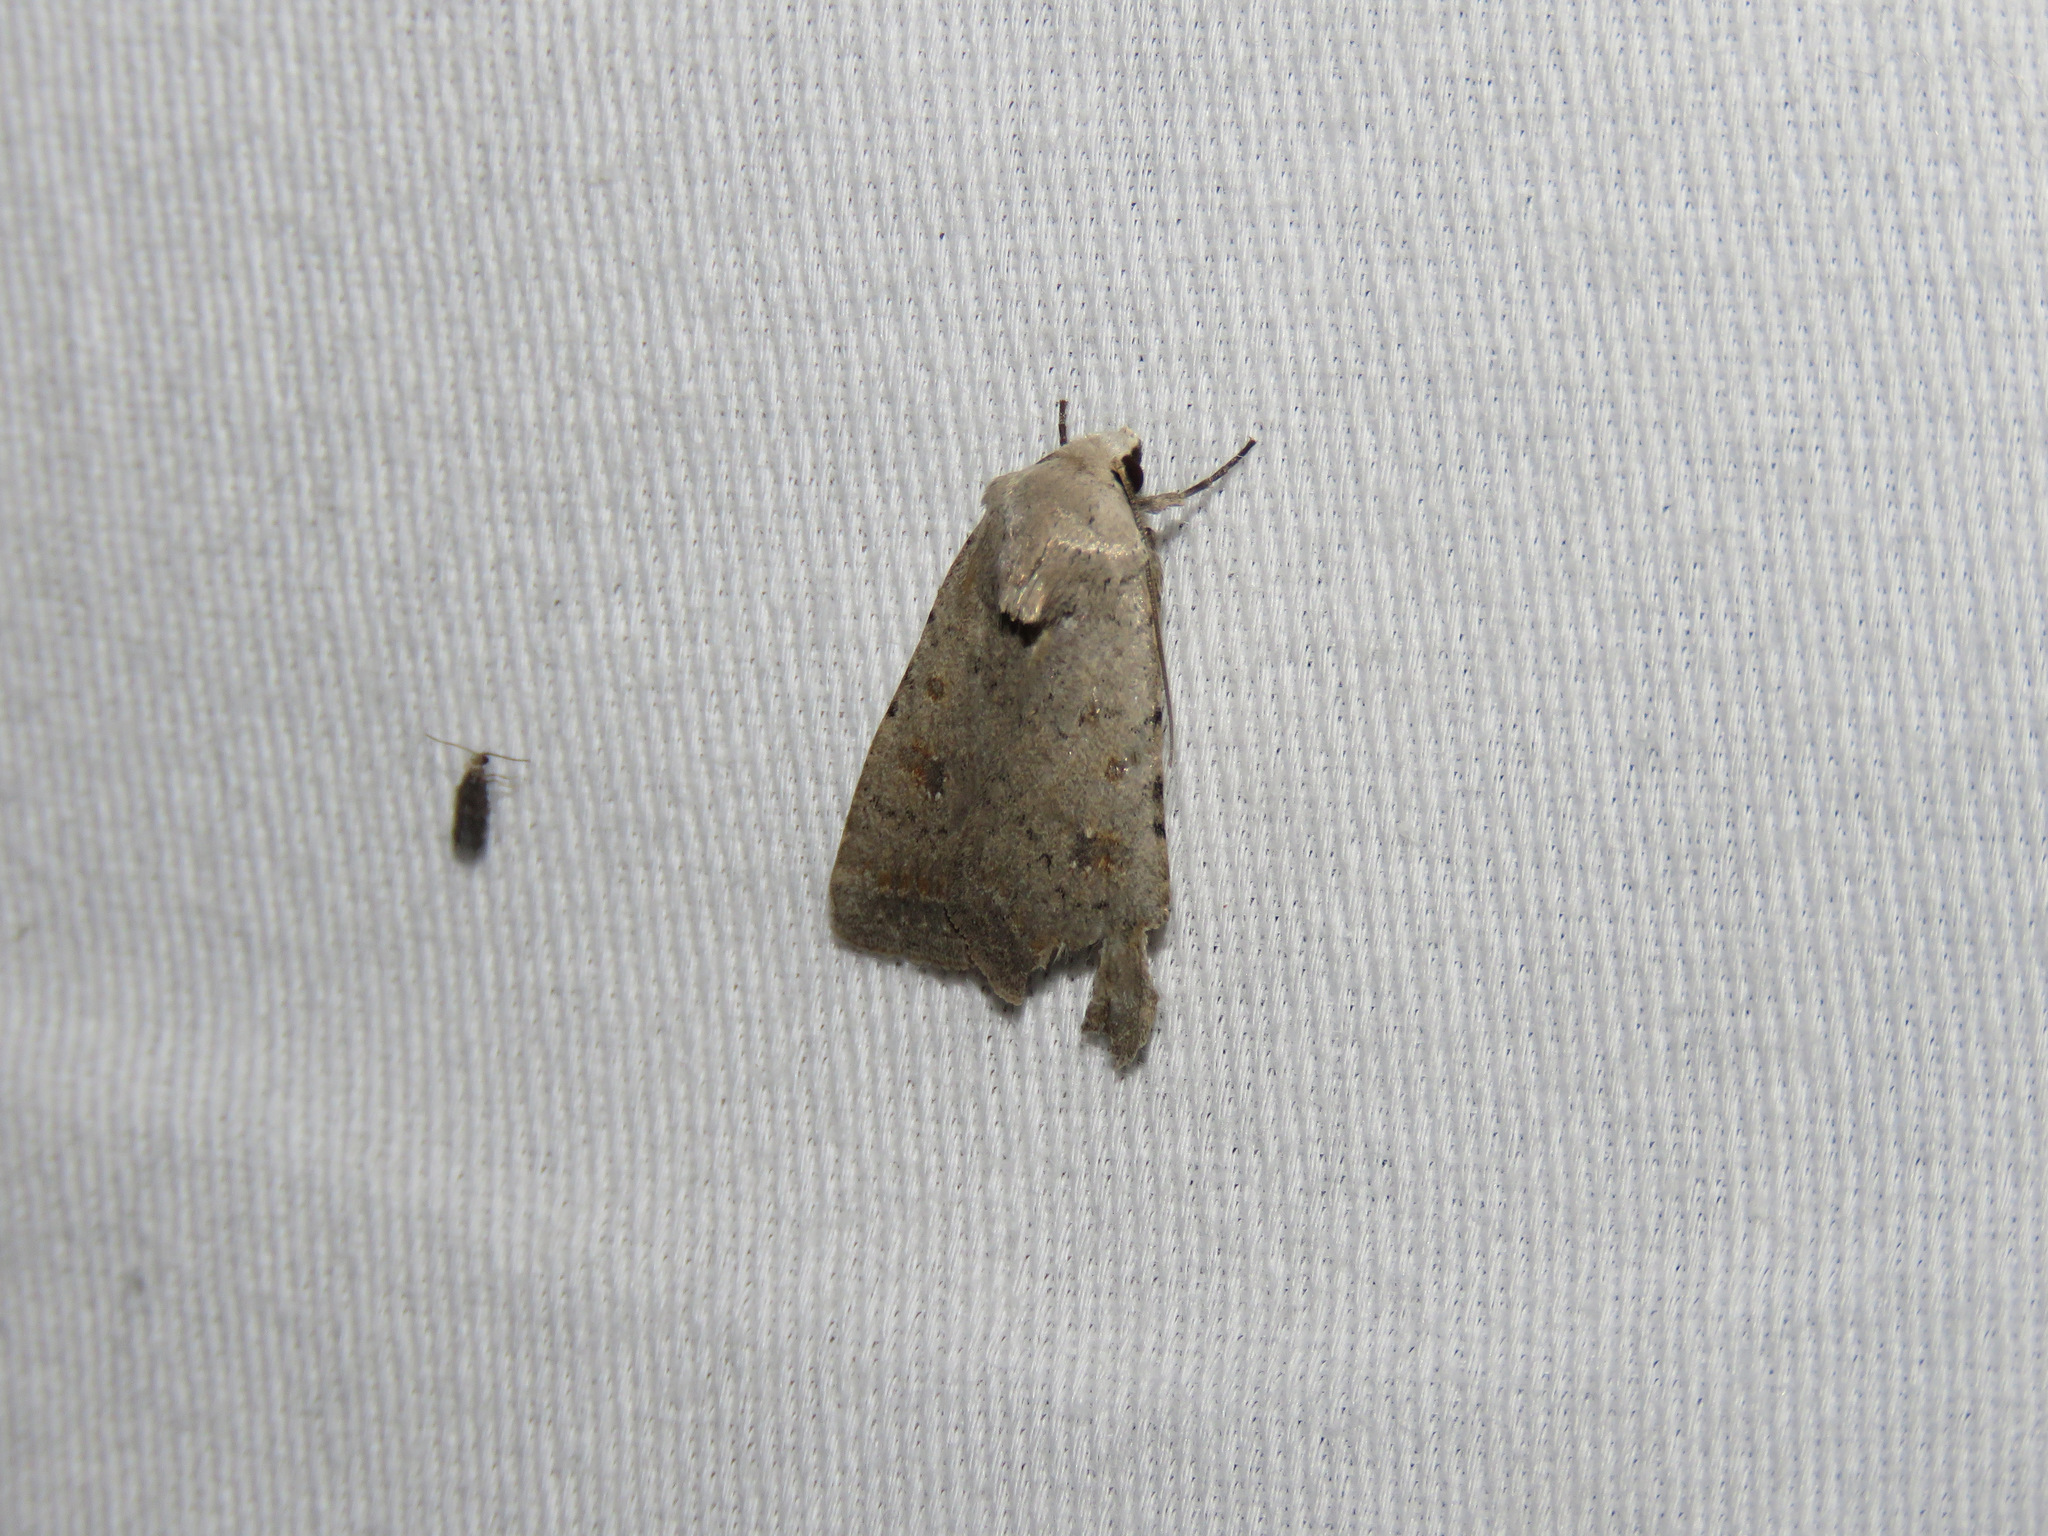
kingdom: Animalia
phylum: Arthropoda
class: Insecta
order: Lepidoptera
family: Noctuidae
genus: Caradrina
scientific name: Caradrina montana
